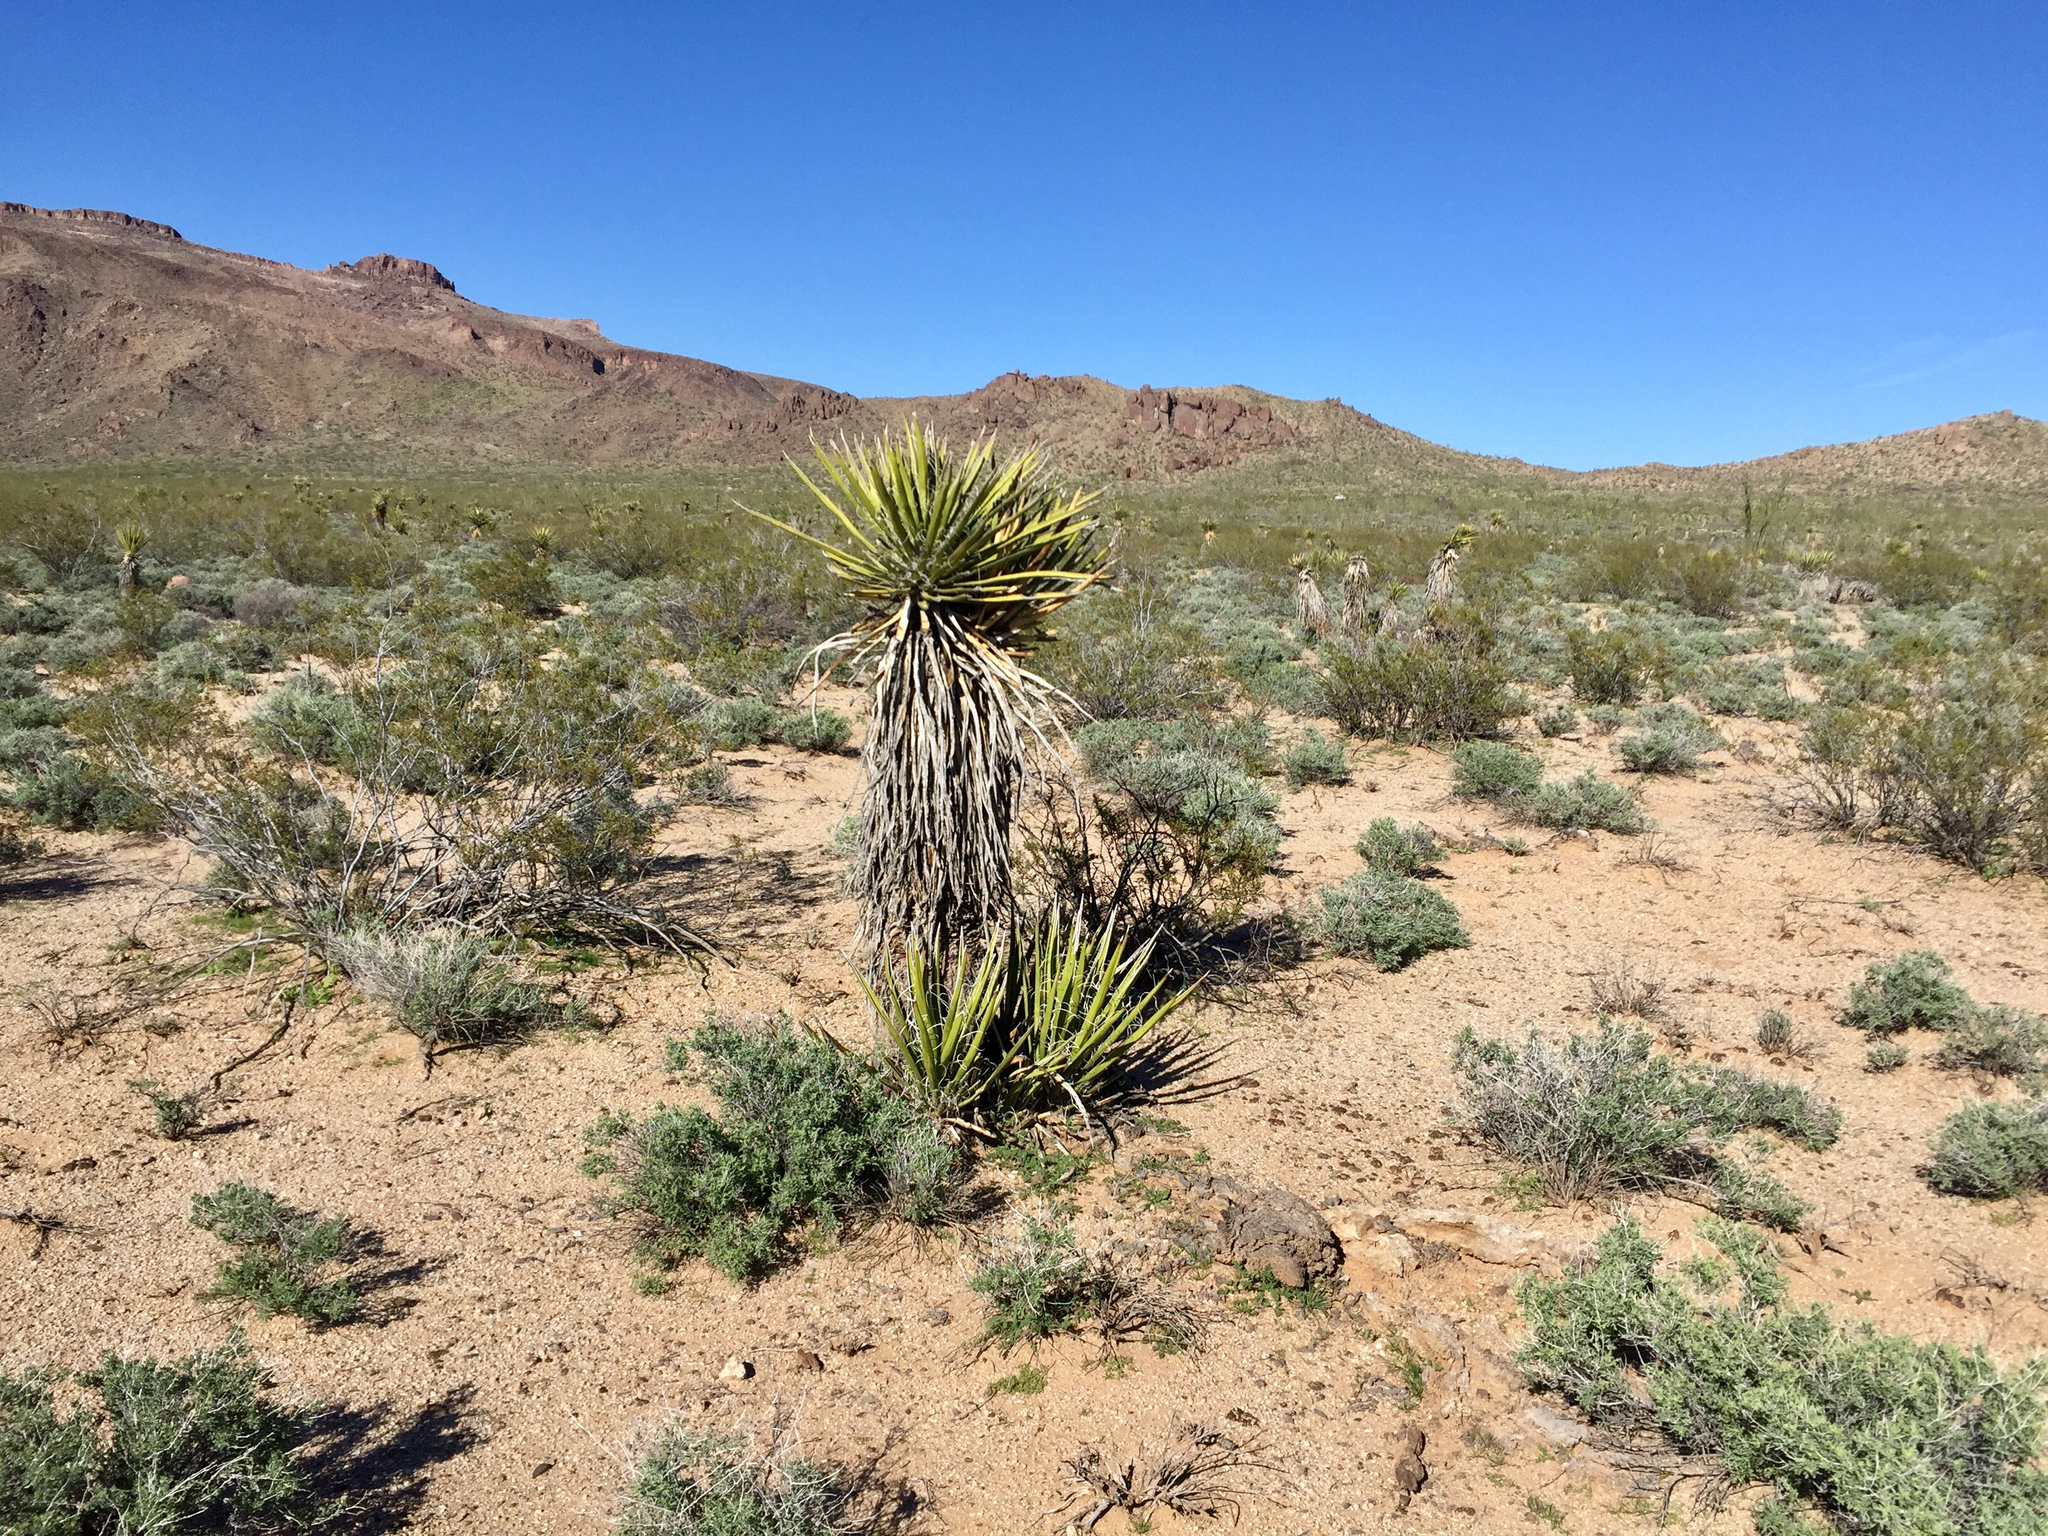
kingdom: Plantae
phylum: Tracheophyta
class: Liliopsida
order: Asparagales
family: Asparagaceae
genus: Yucca
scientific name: Yucca schidigera
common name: Mojave yucca
